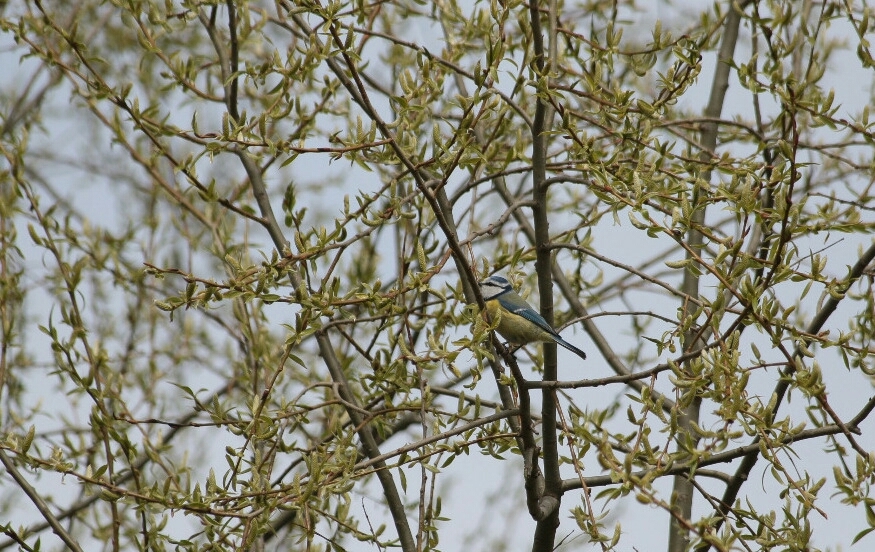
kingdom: Animalia
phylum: Chordata
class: Aves
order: Passeriformes
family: Paridae
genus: Cyanistes
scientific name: Cyanistes caeruleus
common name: Eurasian blue tit
